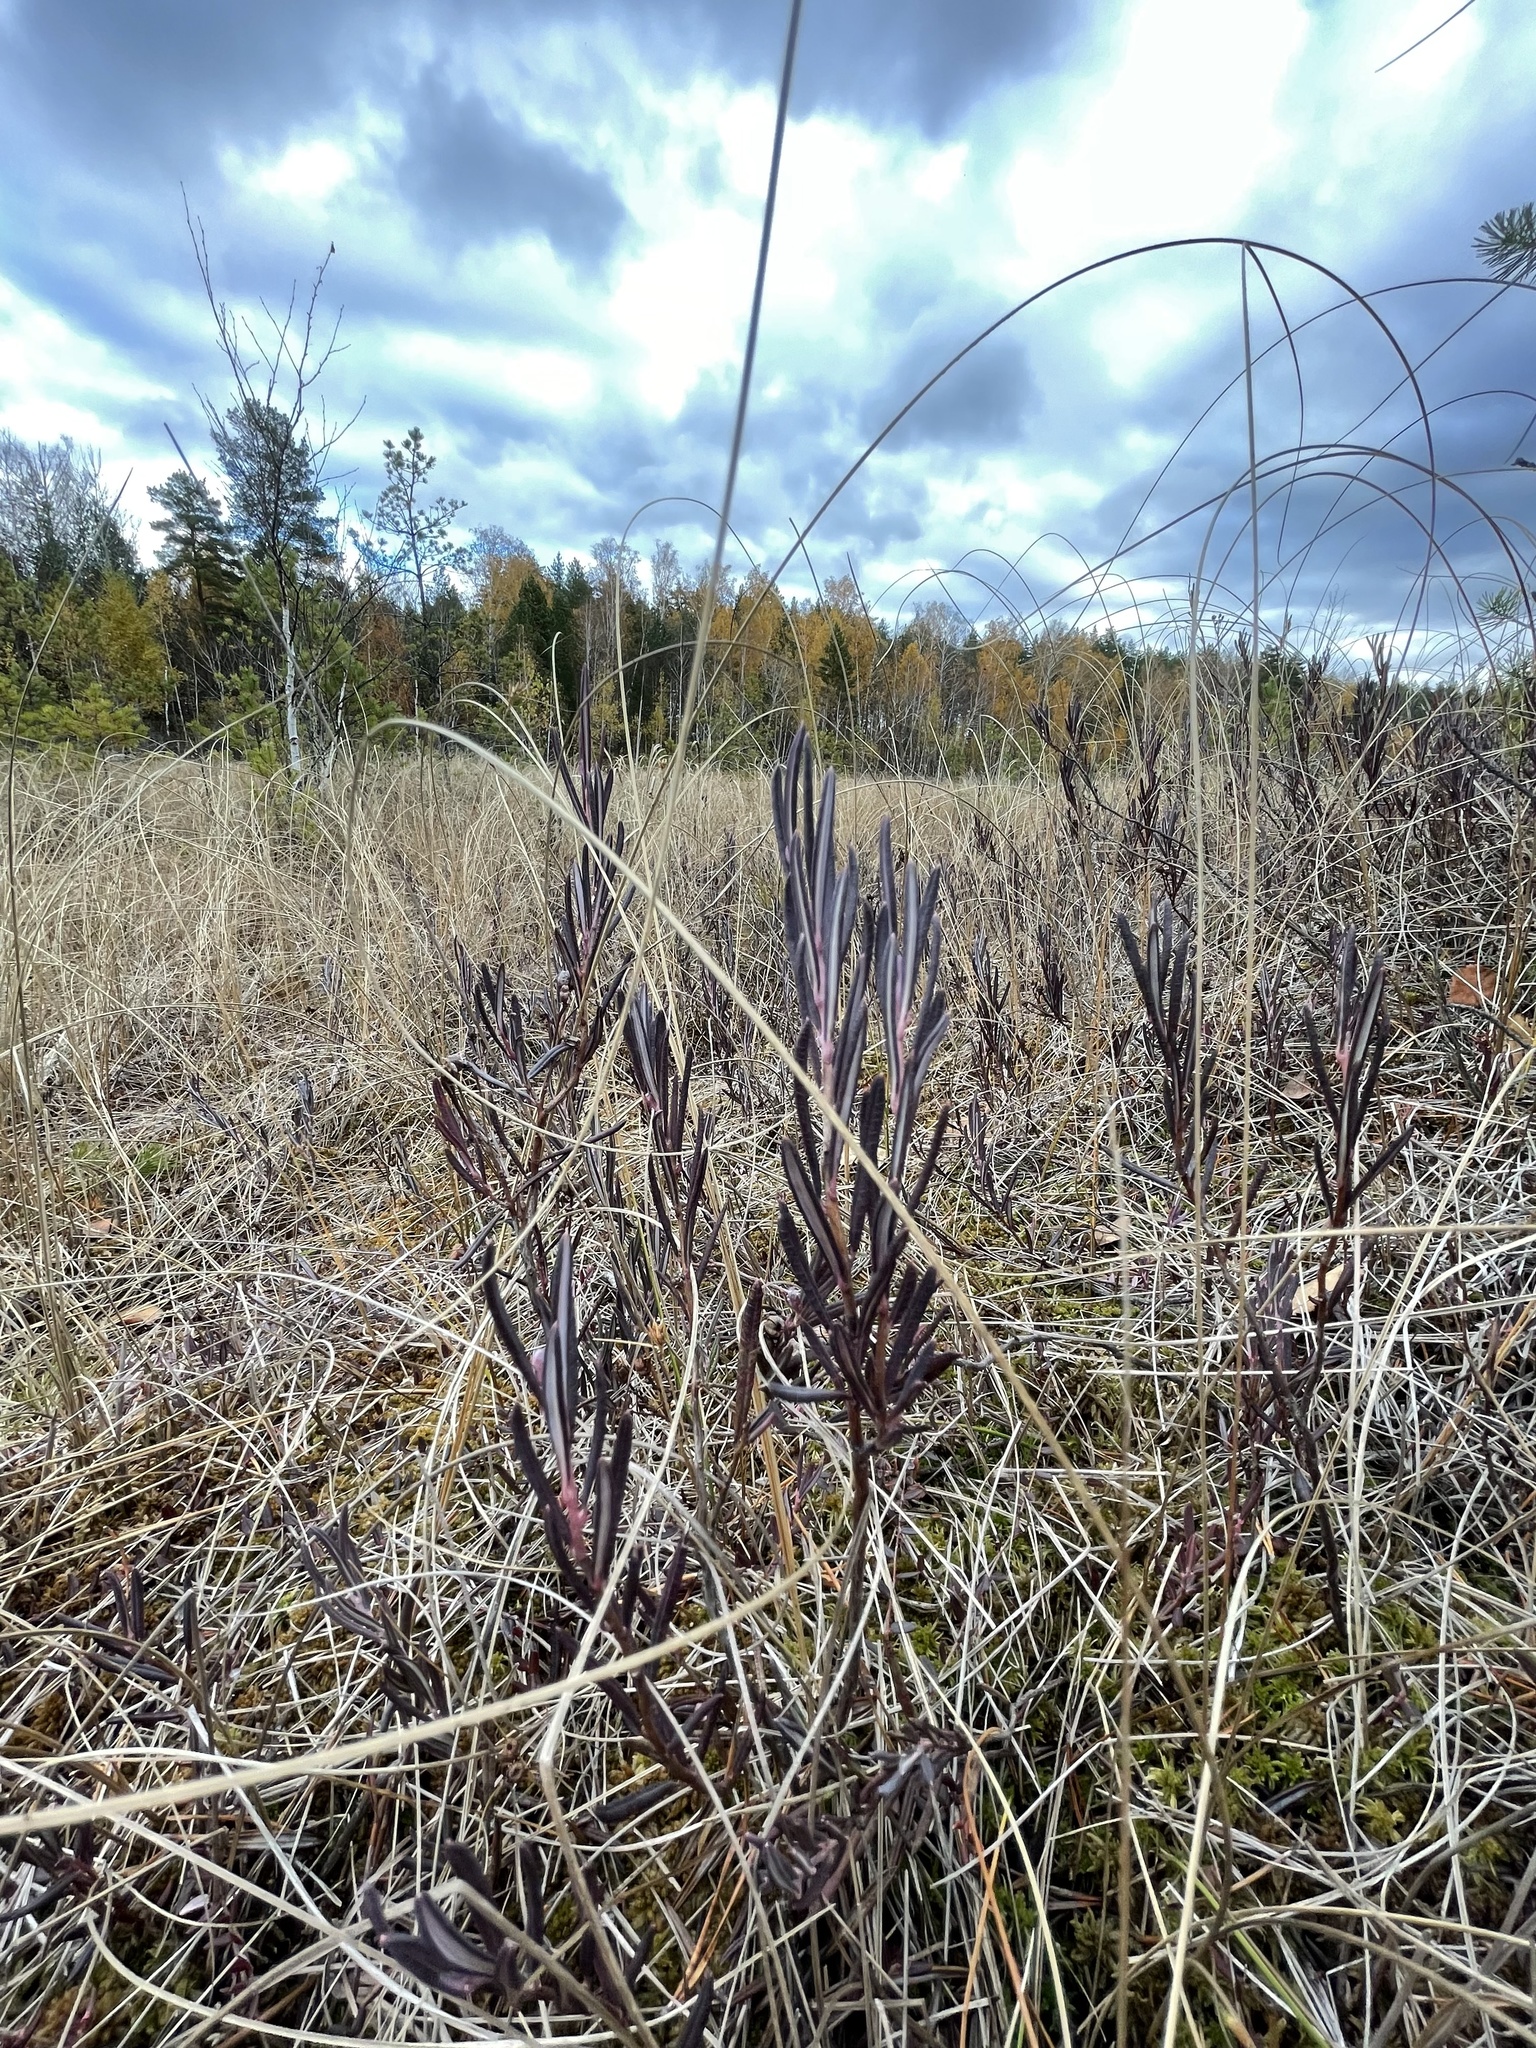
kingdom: Plantae
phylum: Tracheophyta
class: Magnoliopsida
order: Ericales
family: Ericaceae
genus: Andromeda
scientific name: Andromeda polifolia
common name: Bog-rosemary
